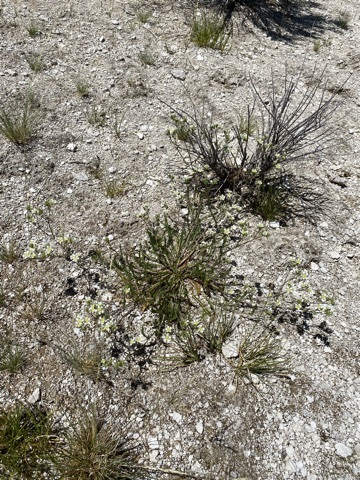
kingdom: Plantae
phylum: Tracheophyta
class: Magnoliopsida
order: Rosales
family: Rosaceae
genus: Potentilla
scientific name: Potentilla kingii
